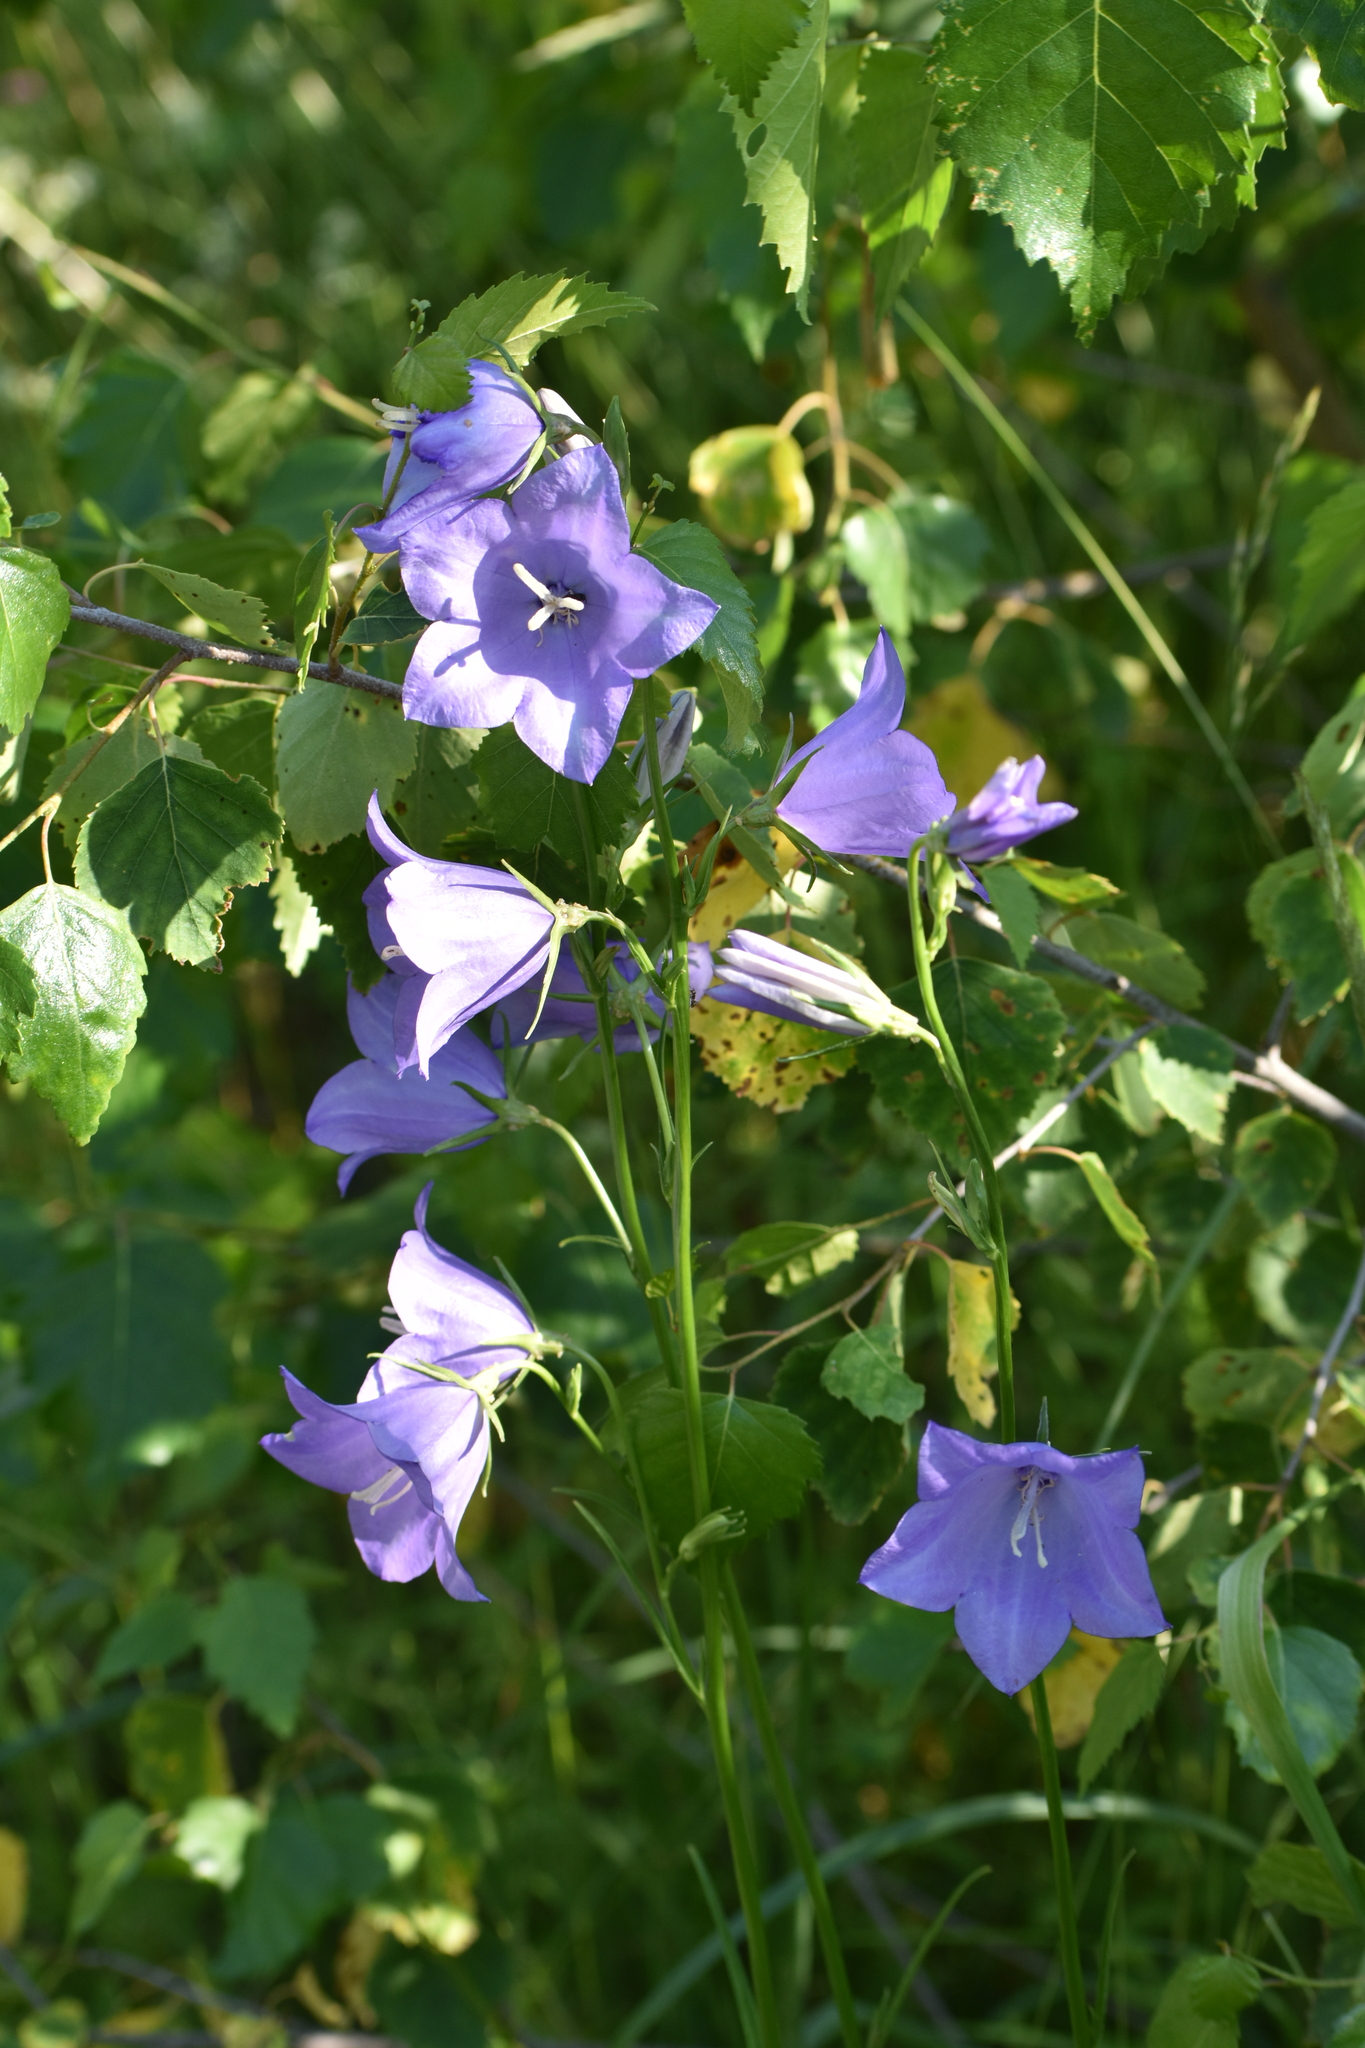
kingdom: Plantae
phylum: Tracheophyta
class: Magnoliopsida
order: Asterales
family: Campanulaceae
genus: Campanula
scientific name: Campanula persicifolia
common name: Peach-leaved bellflower
